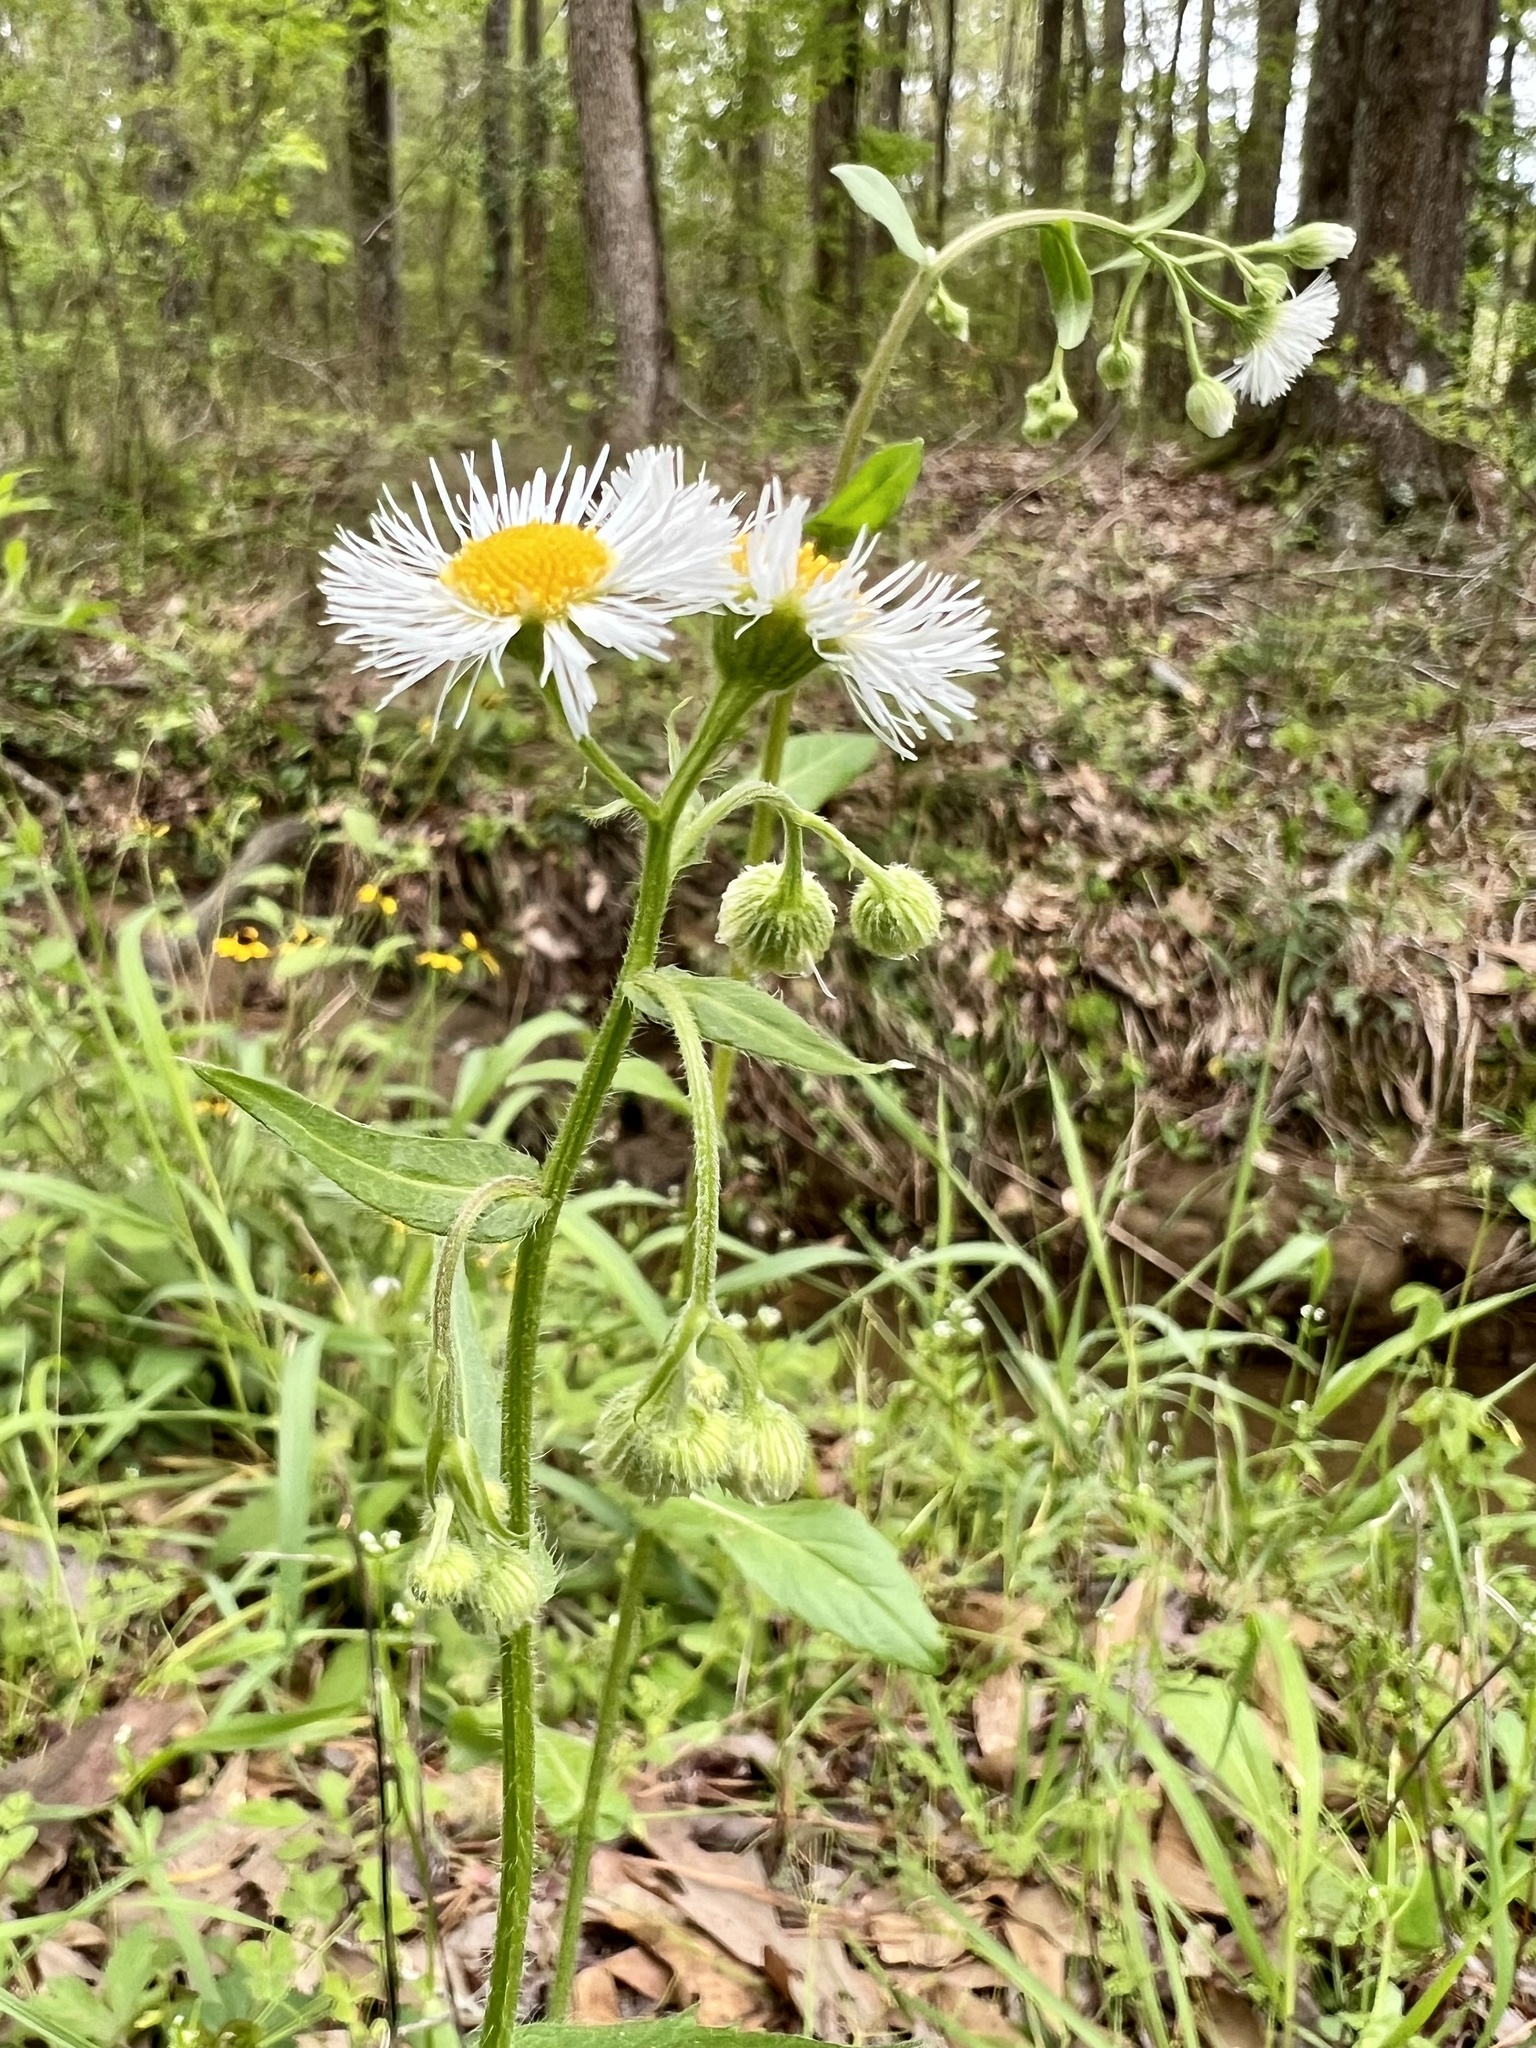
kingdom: Plantae
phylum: Tracheophyta
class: Magnoliopsida
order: Asterales
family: Asteraceae
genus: Erigeron
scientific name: Erigeron philadelphicus
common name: Robin's-plantain
